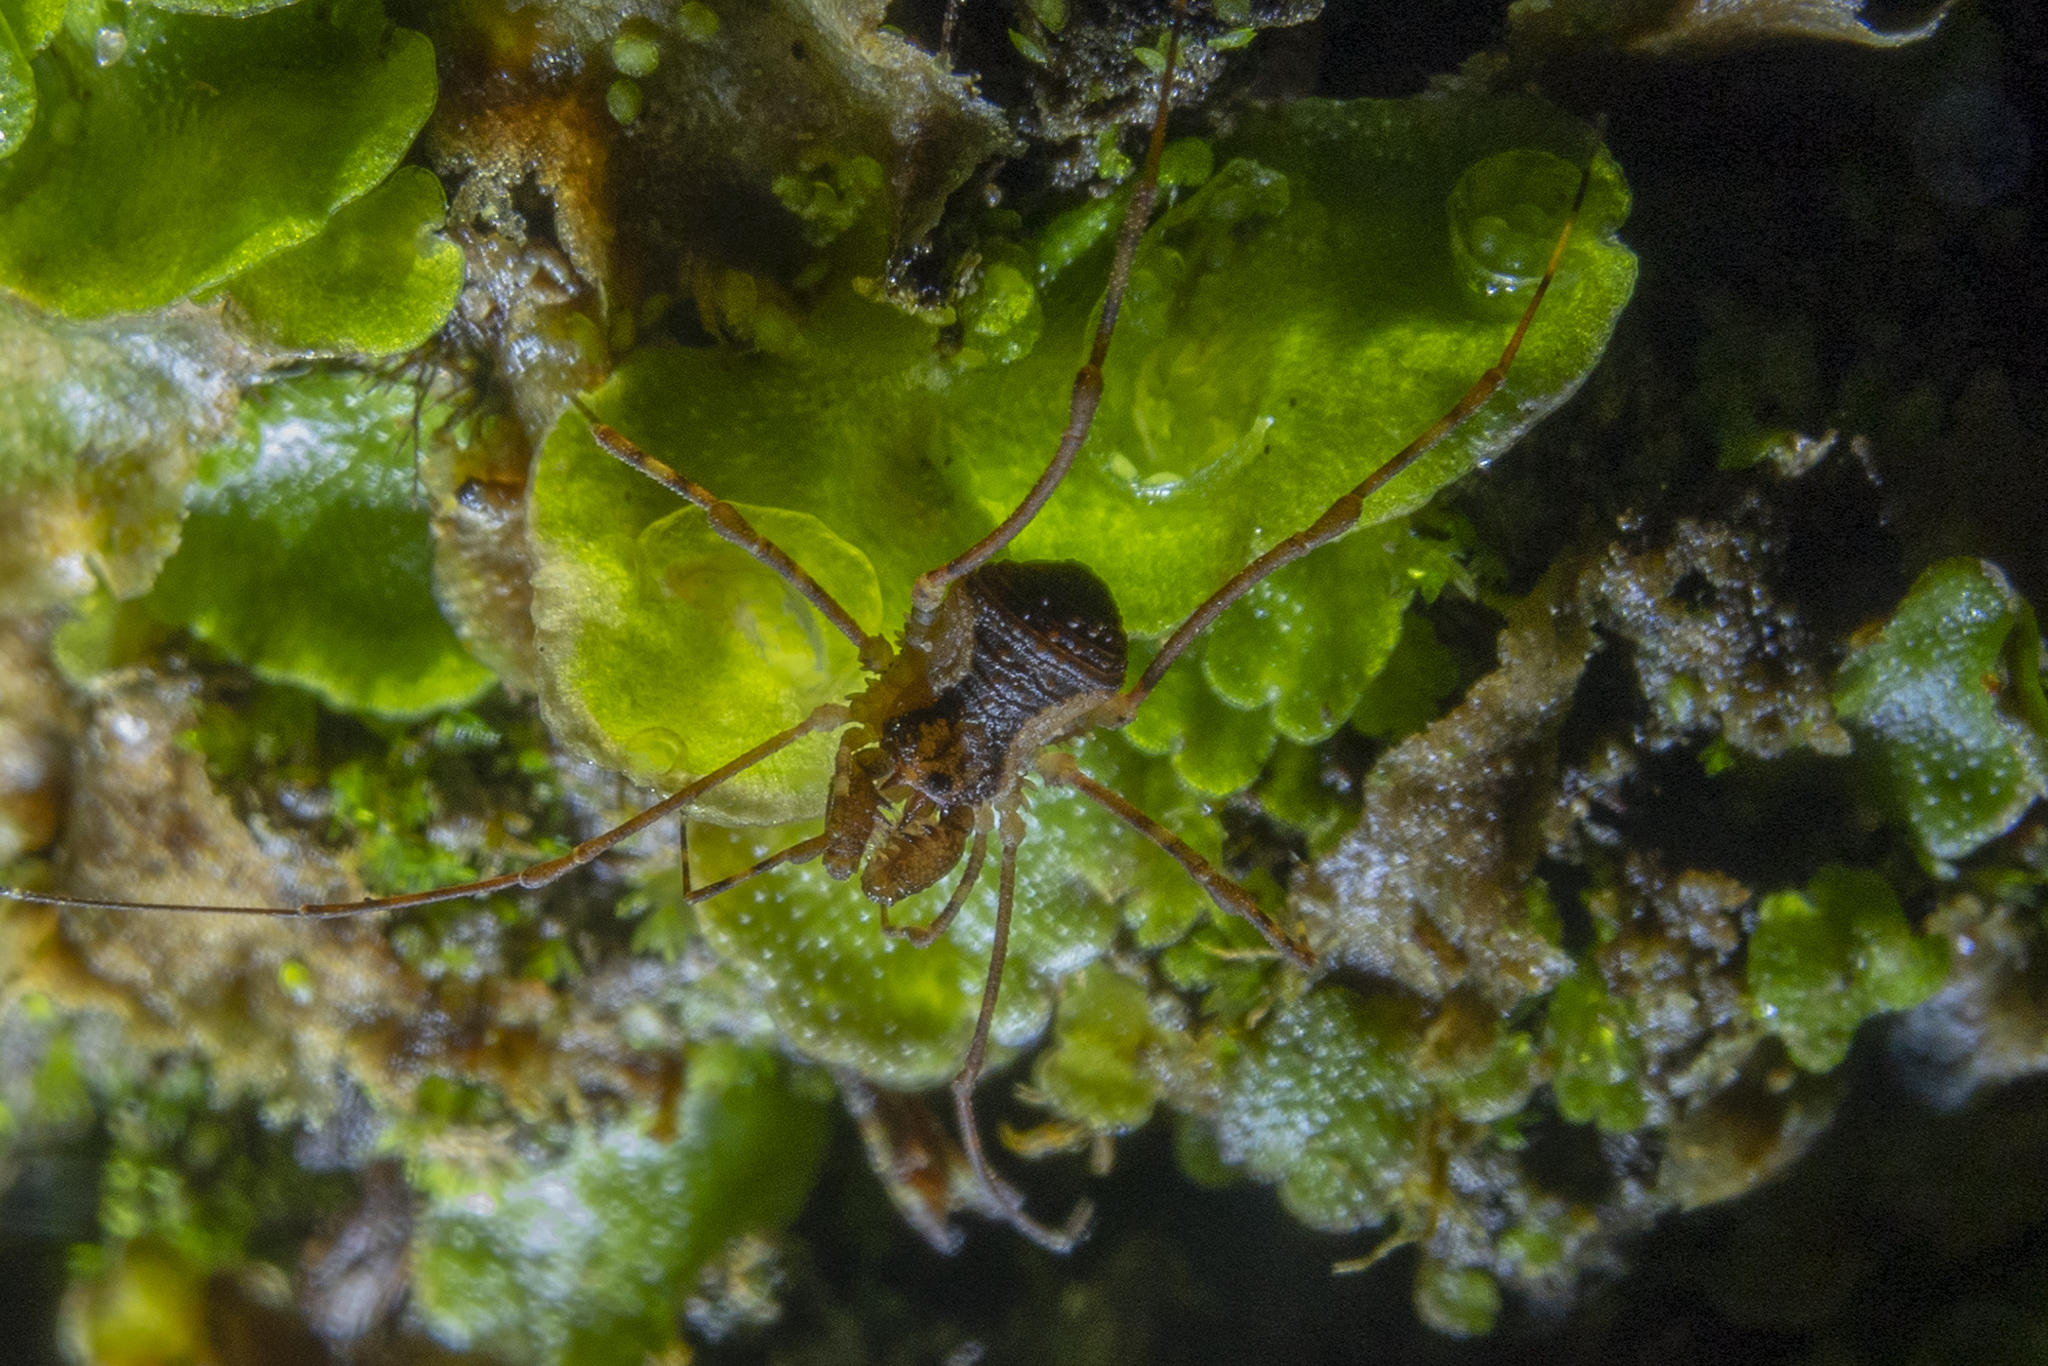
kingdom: Animalia
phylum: Arthropoda
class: Arachnida
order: Opiliones
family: Triaenonychidae
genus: Algidia
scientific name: Algidia interrupta
